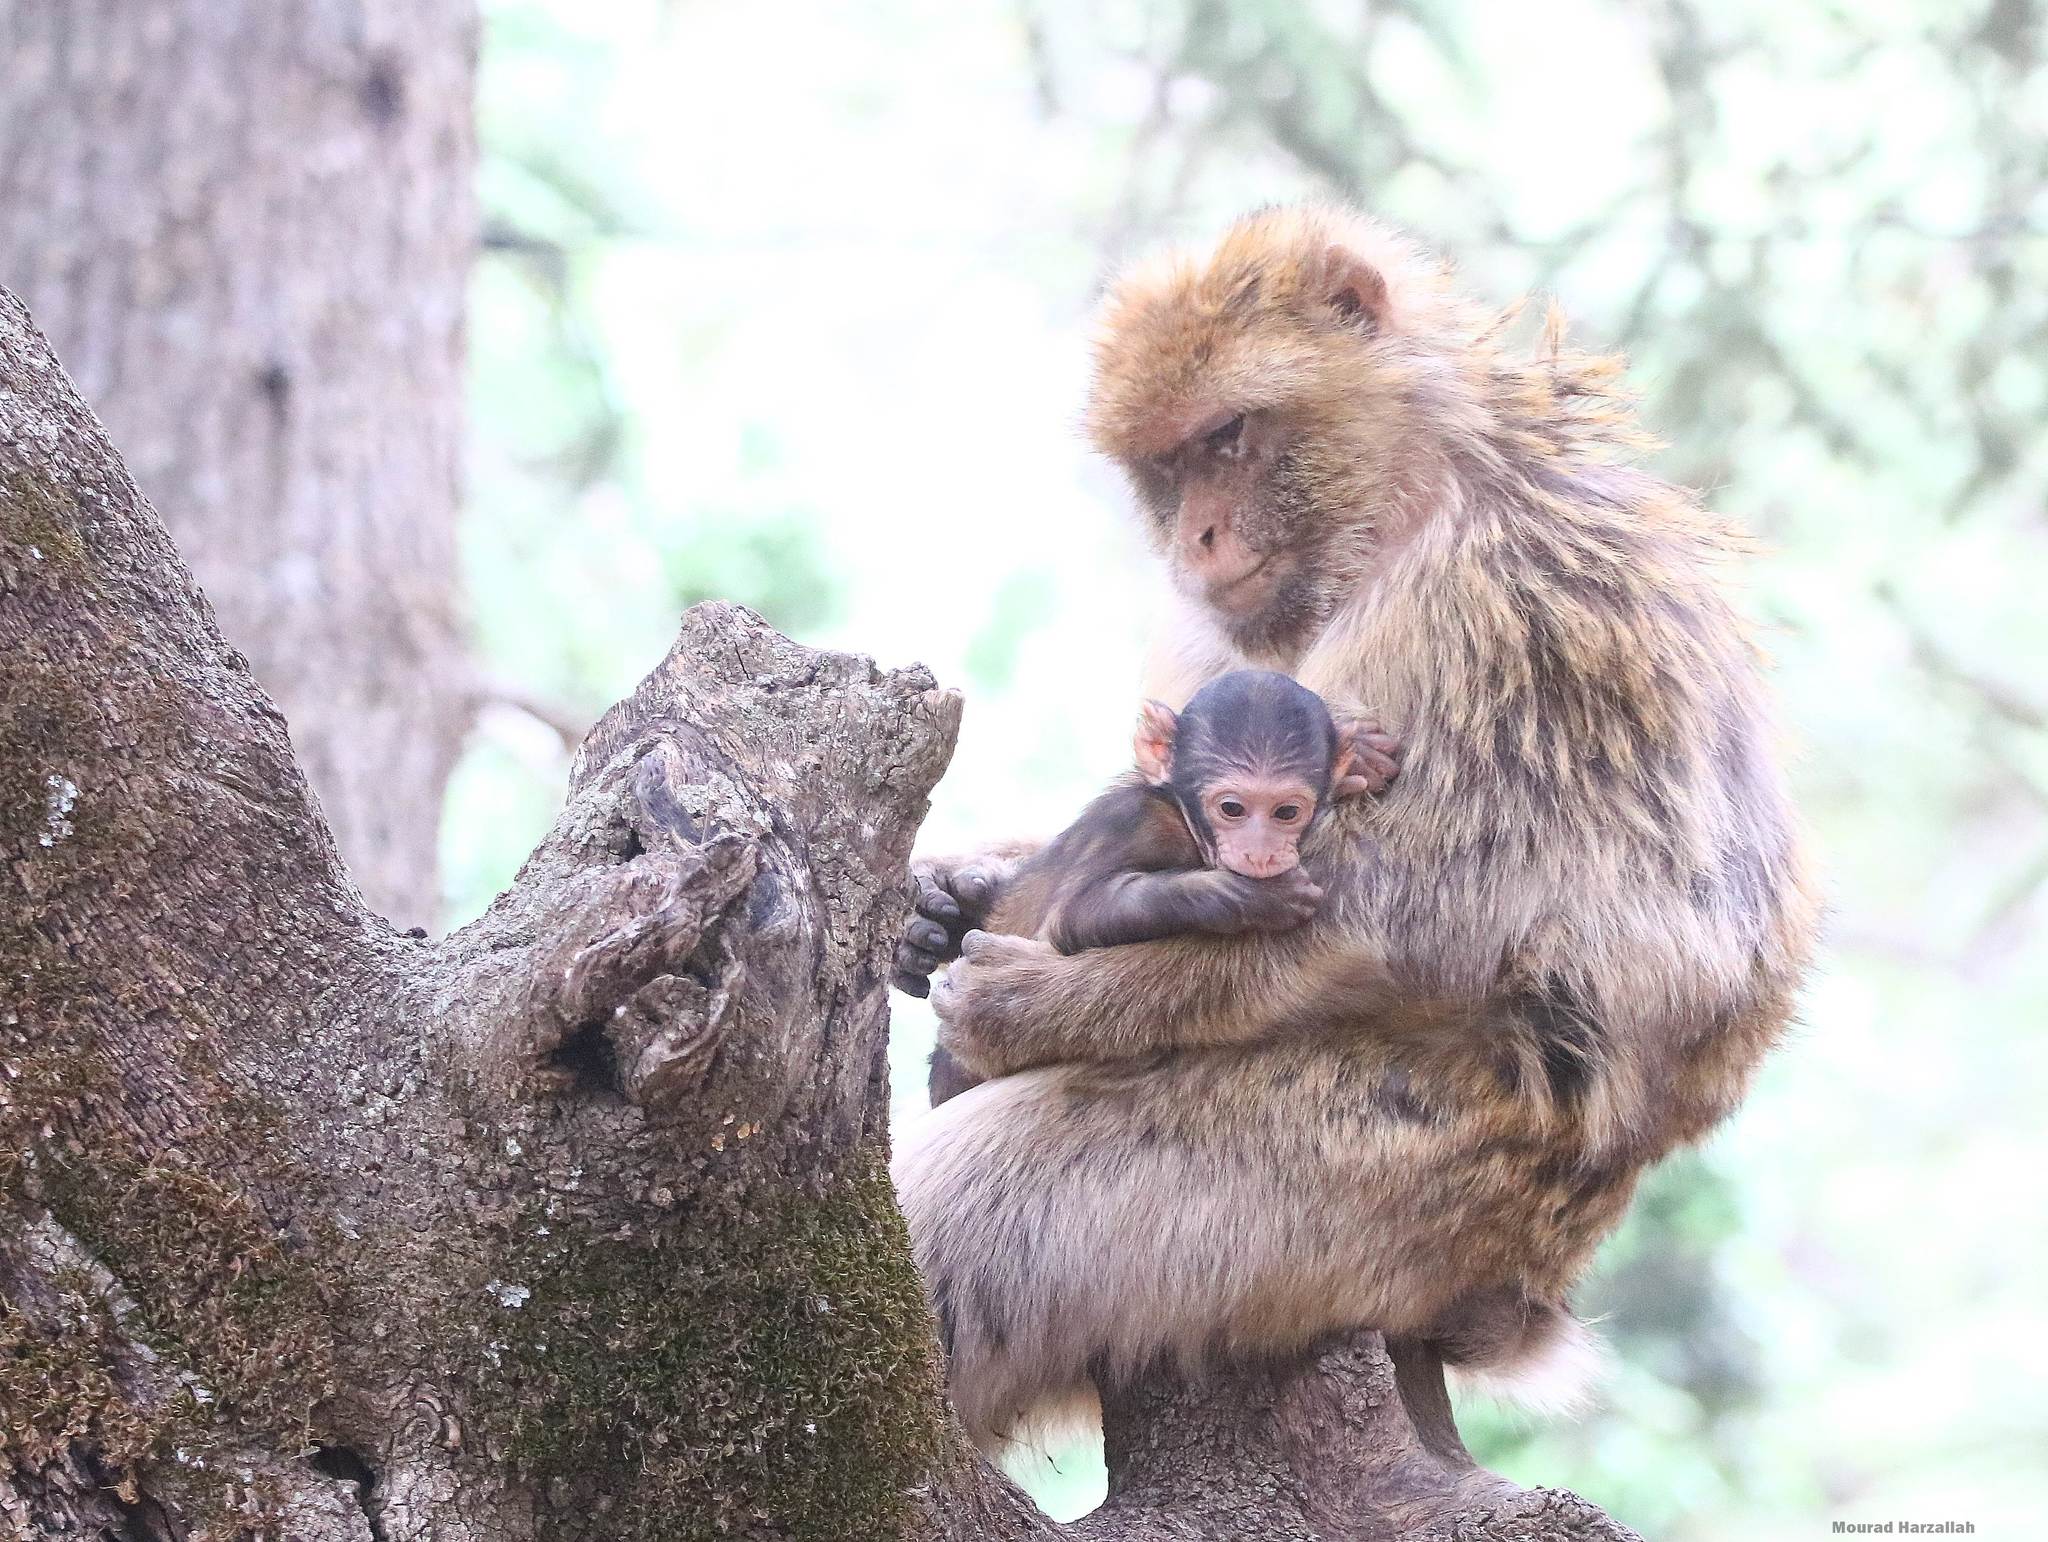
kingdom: Animalia
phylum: Chordata
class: Mammalia
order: Primates
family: Cercopithecidae
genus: Macaca
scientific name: Macaca sylvanus
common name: Barbary macaque
